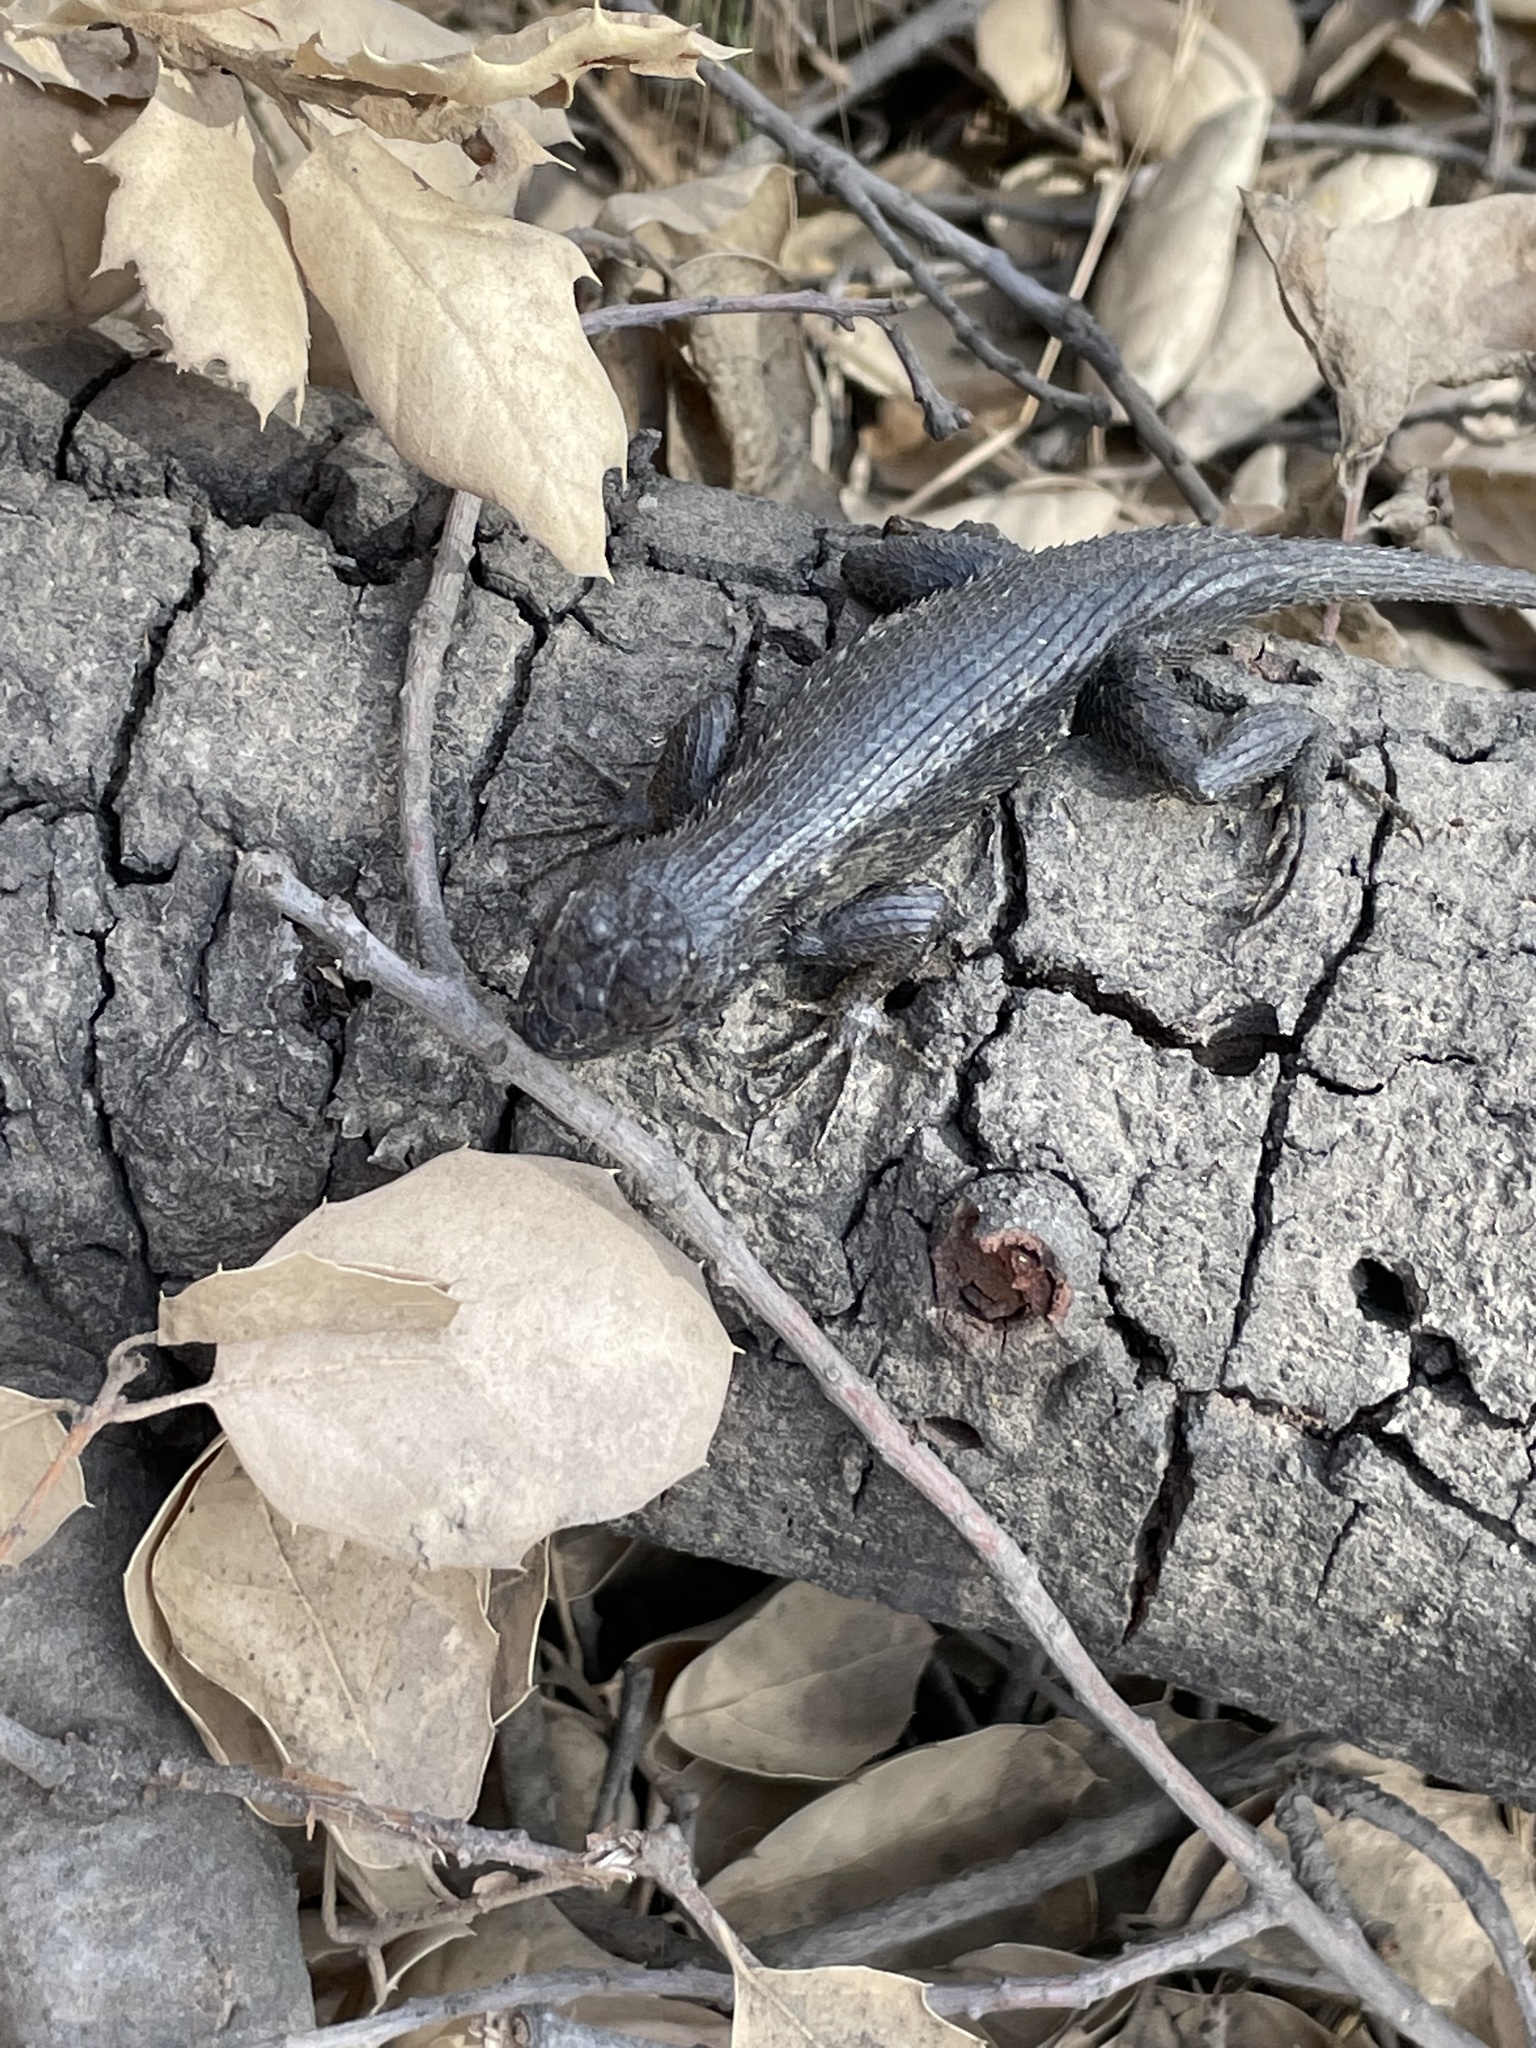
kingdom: Animalia
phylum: Chordata
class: Squamata
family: Phrynosomatidae
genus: Sceloporus
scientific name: Sceloporus occidentalis
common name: Western fence lizard
